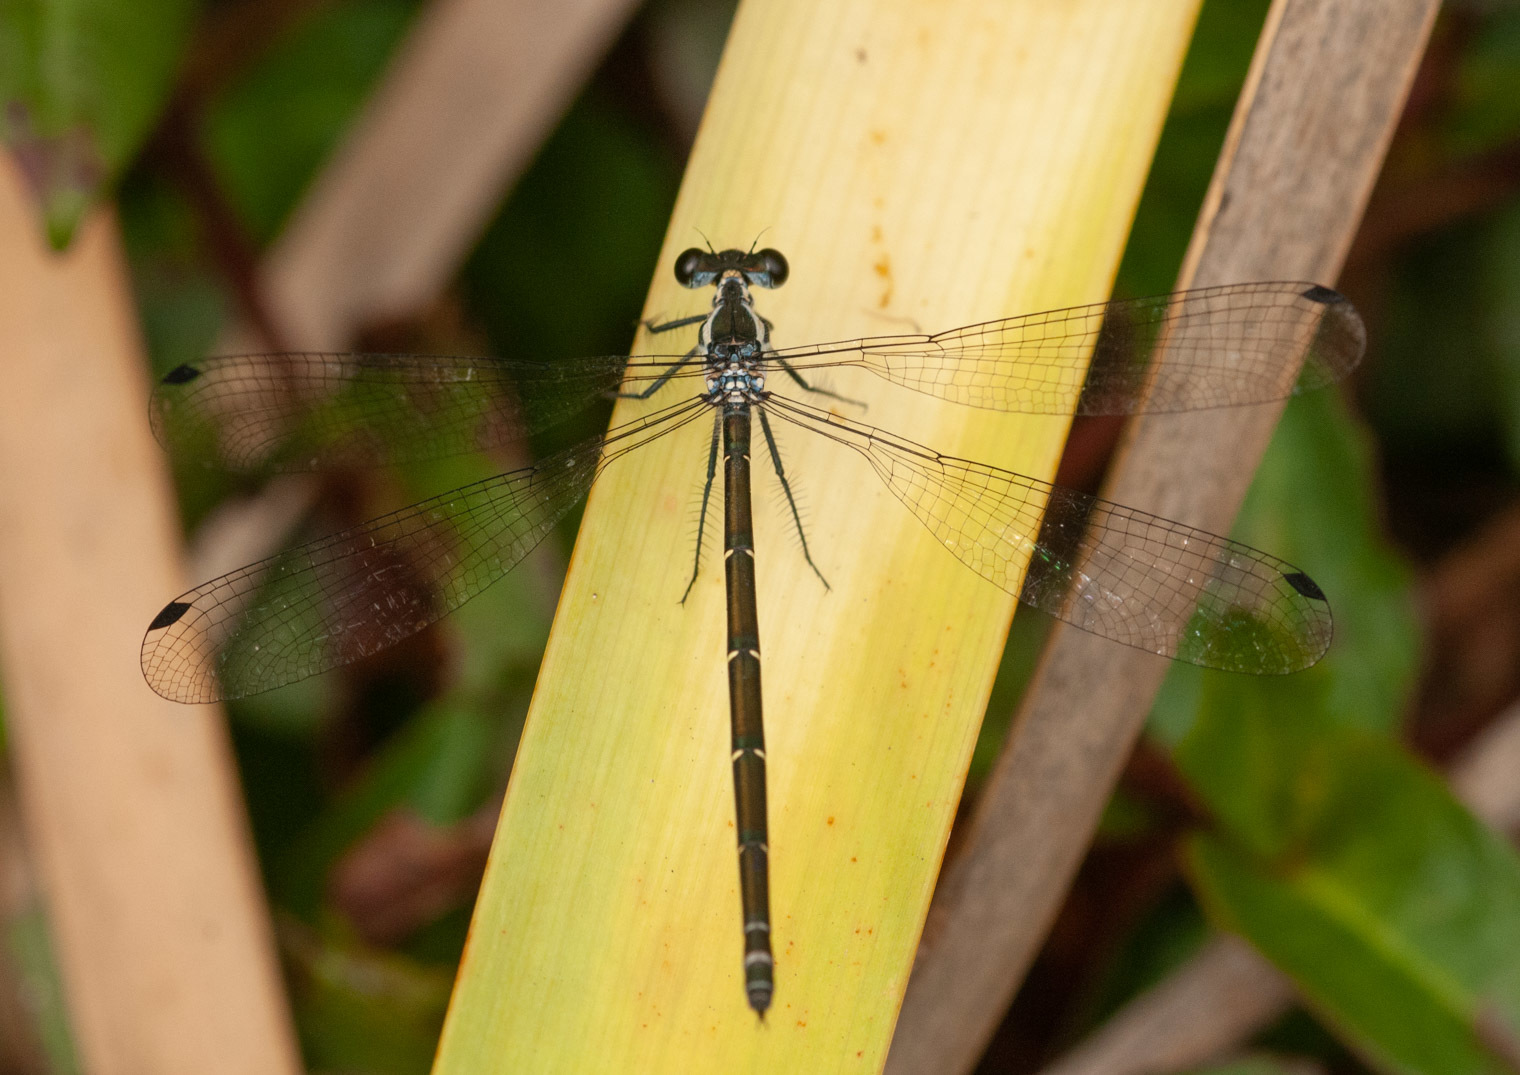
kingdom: Animalia
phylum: Arthropoda
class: Insecta
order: Odonata
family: Argiolestidae
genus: Austroargiolestes
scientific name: Austroargiolestes icteromelas
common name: Common flatwing
